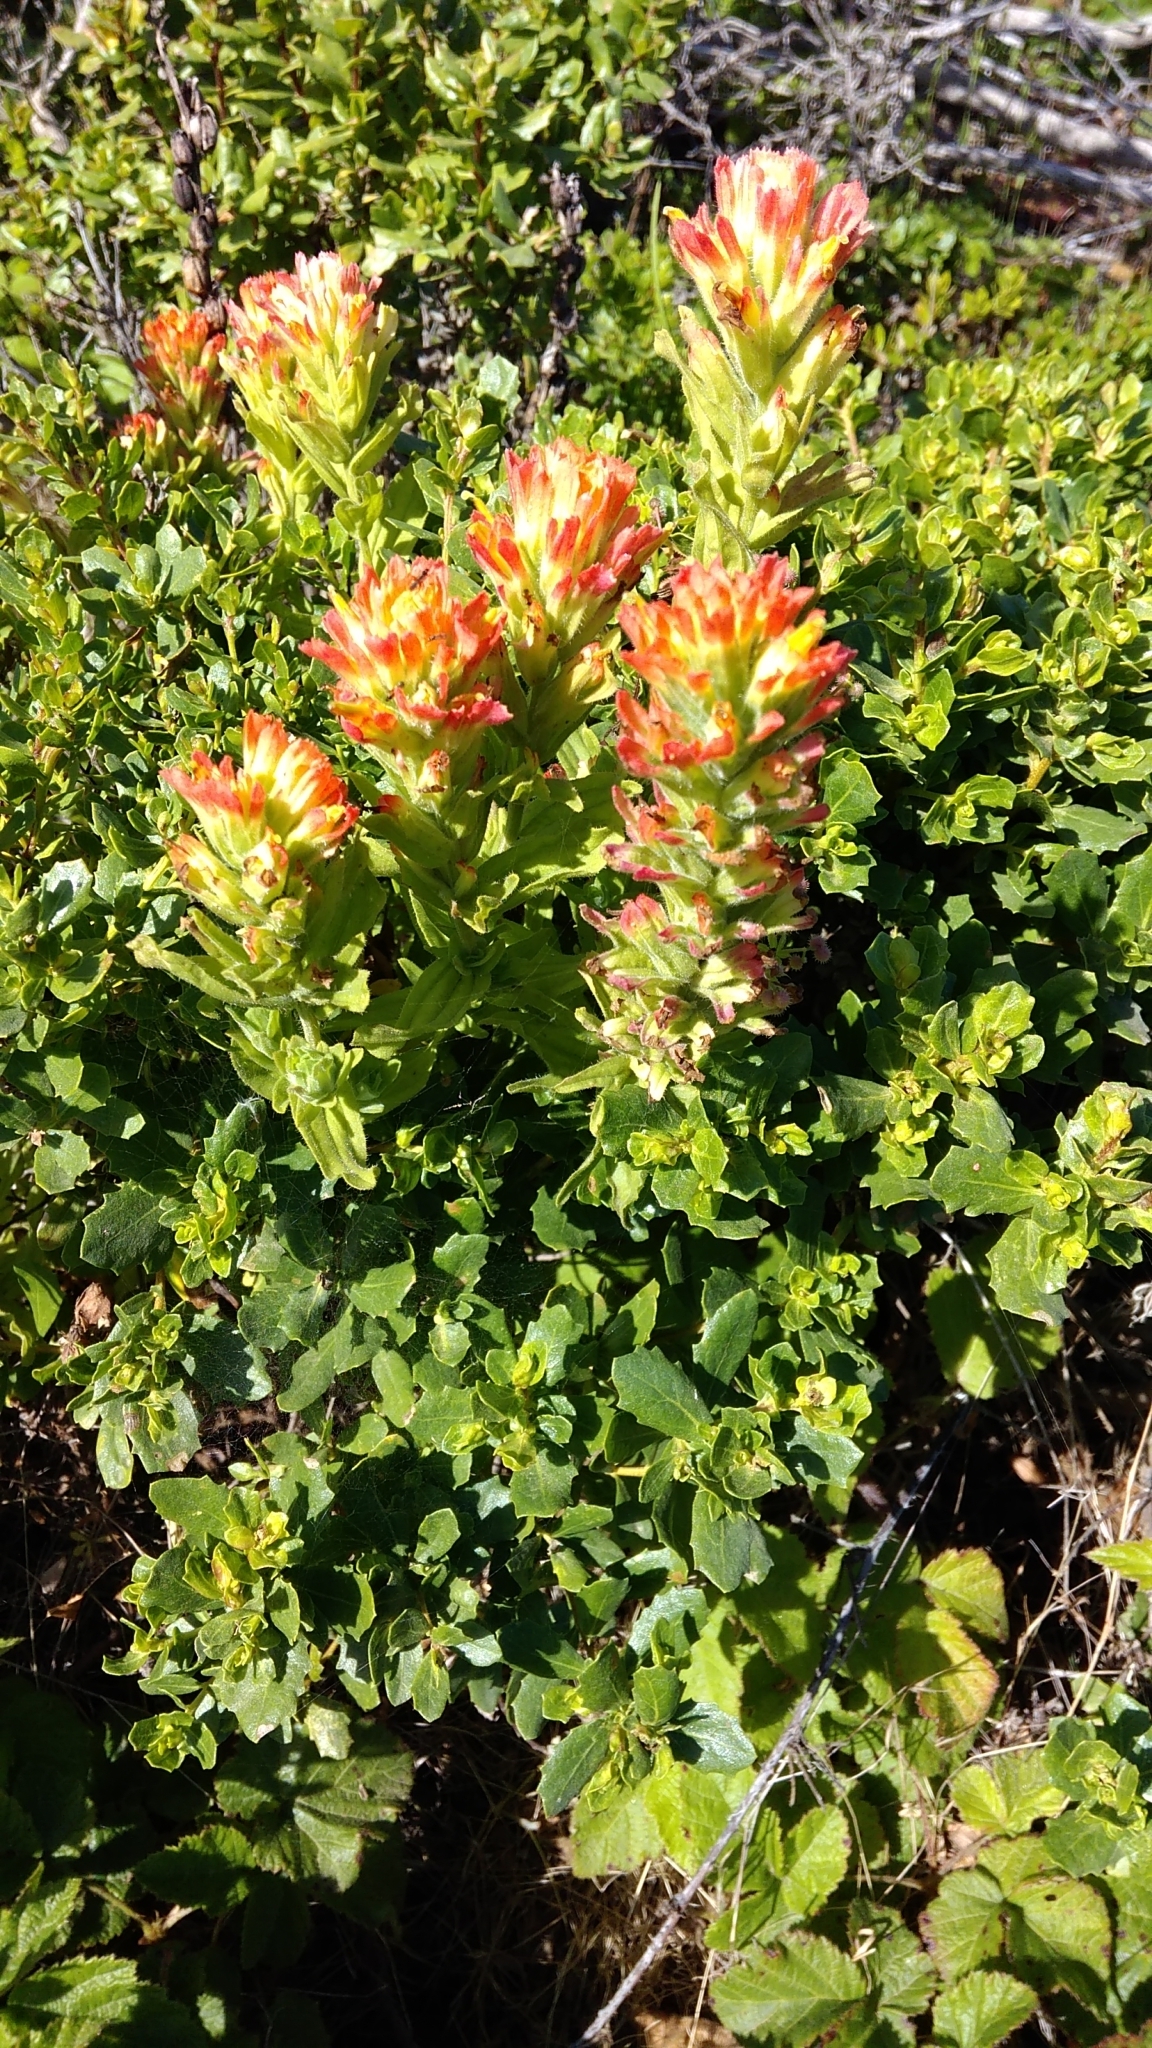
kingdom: Plantae
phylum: Tracheophyta
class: Magnoliopsida
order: Lamiales
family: Orobanchaceae
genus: Castilleja
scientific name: Castilleja wightii
